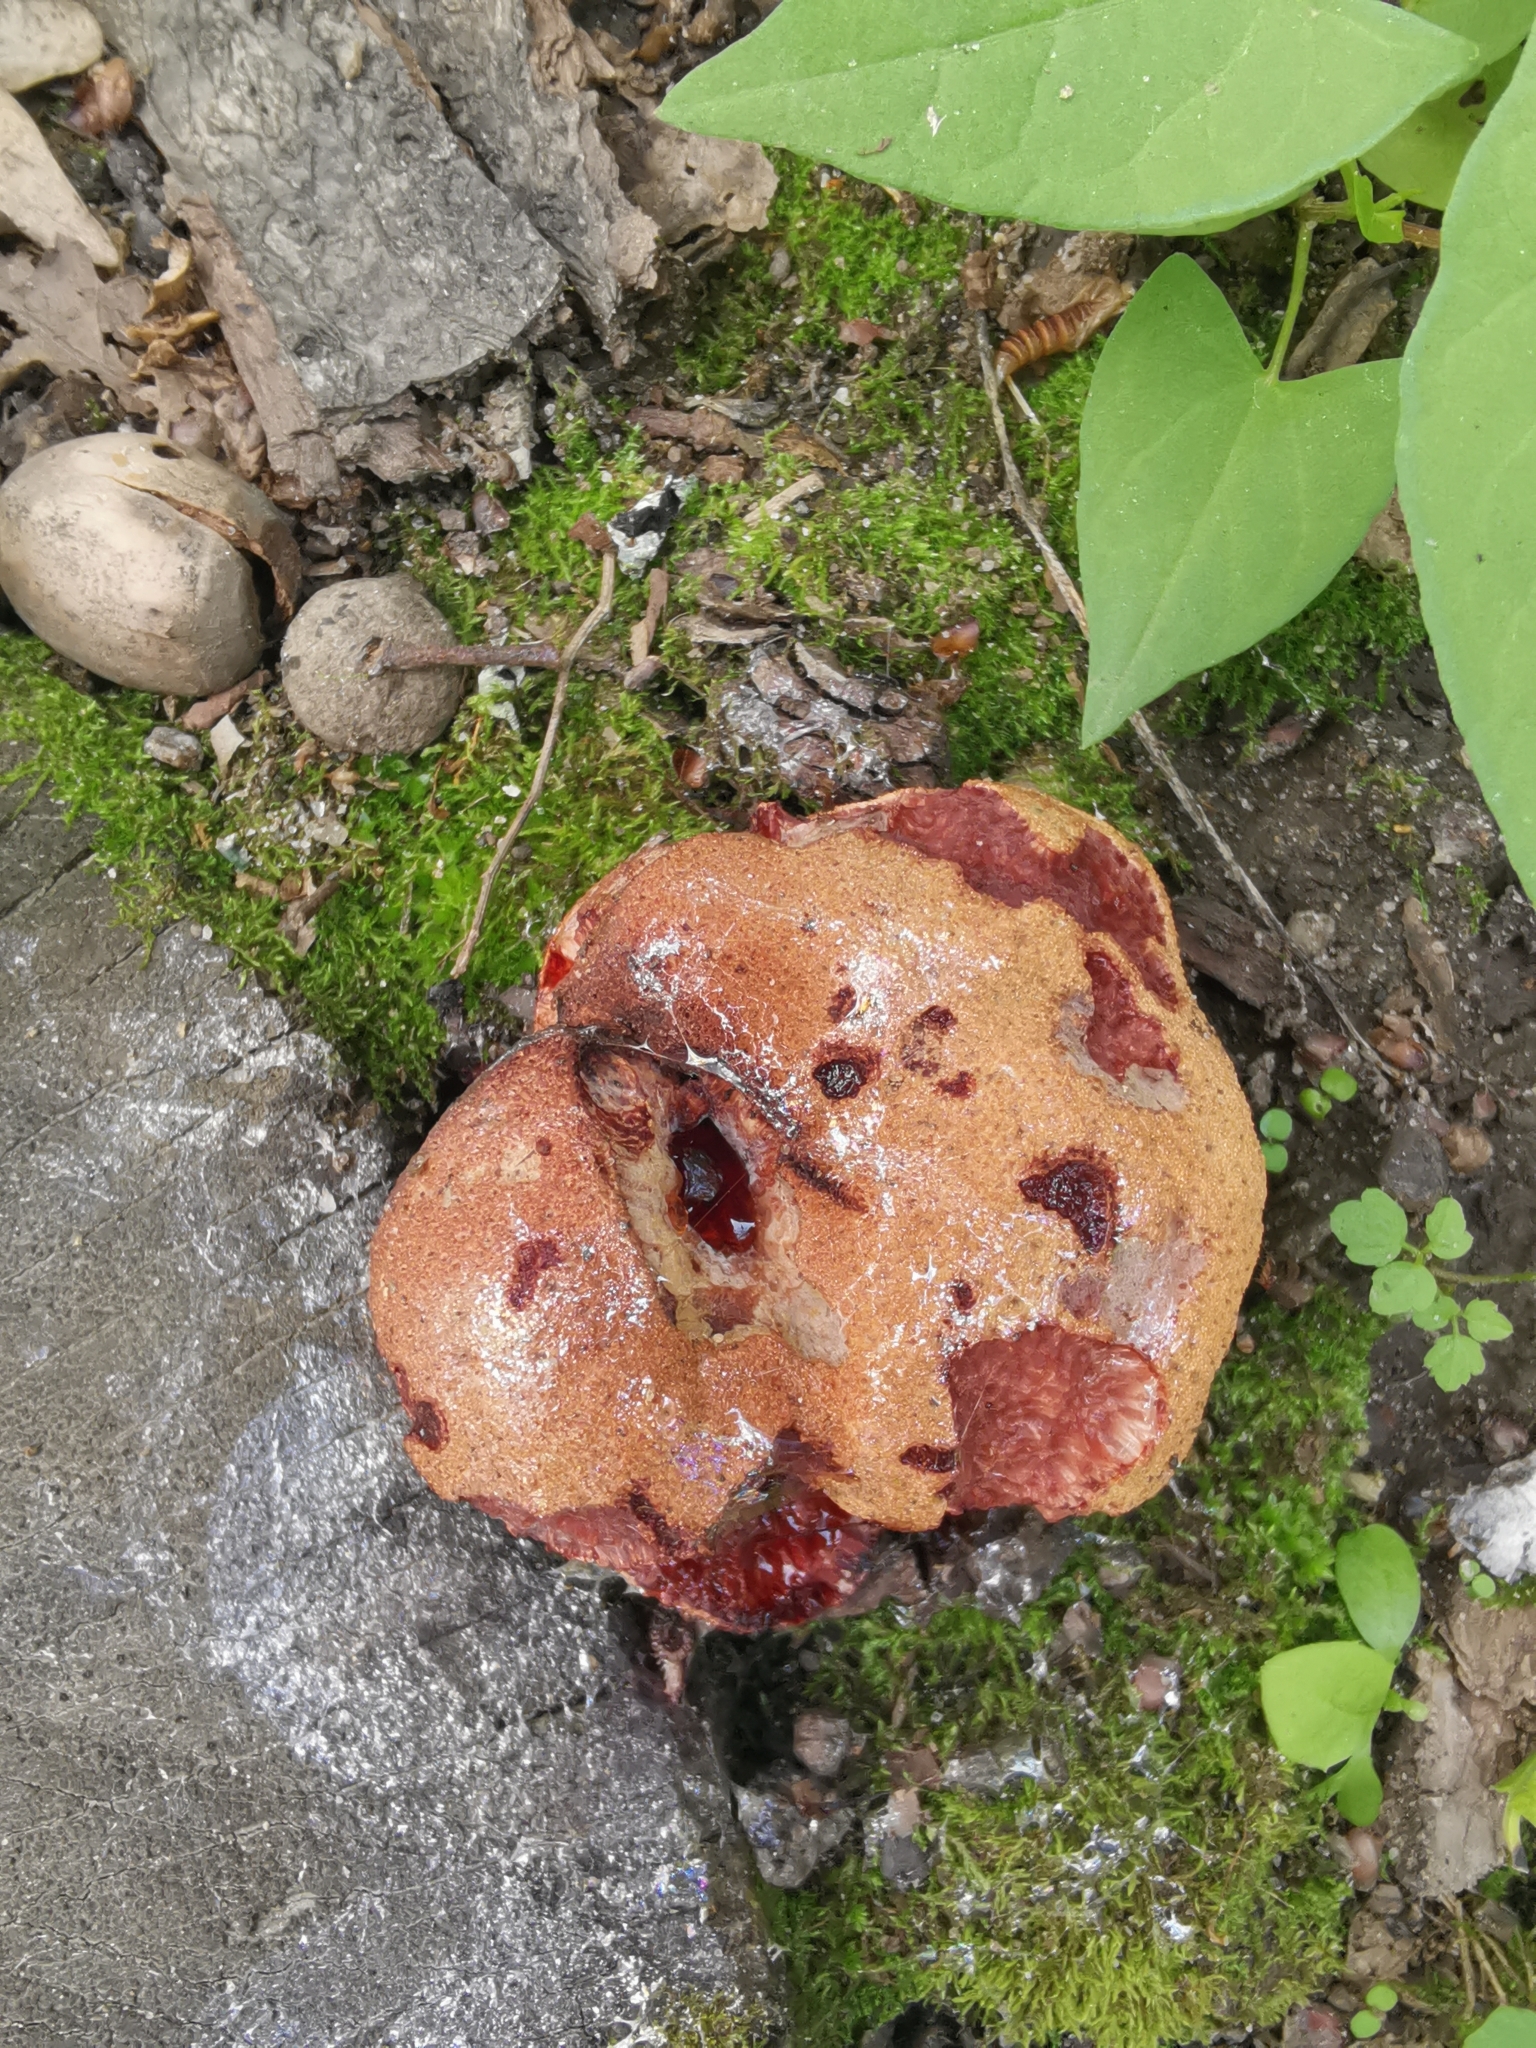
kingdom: Fungi
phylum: Basidiomycota
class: Agaricomycetes
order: Agaricales
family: Fistulinaceae
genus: Fistulina
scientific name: Fistulina hepatica
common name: Beef-steak fungus
